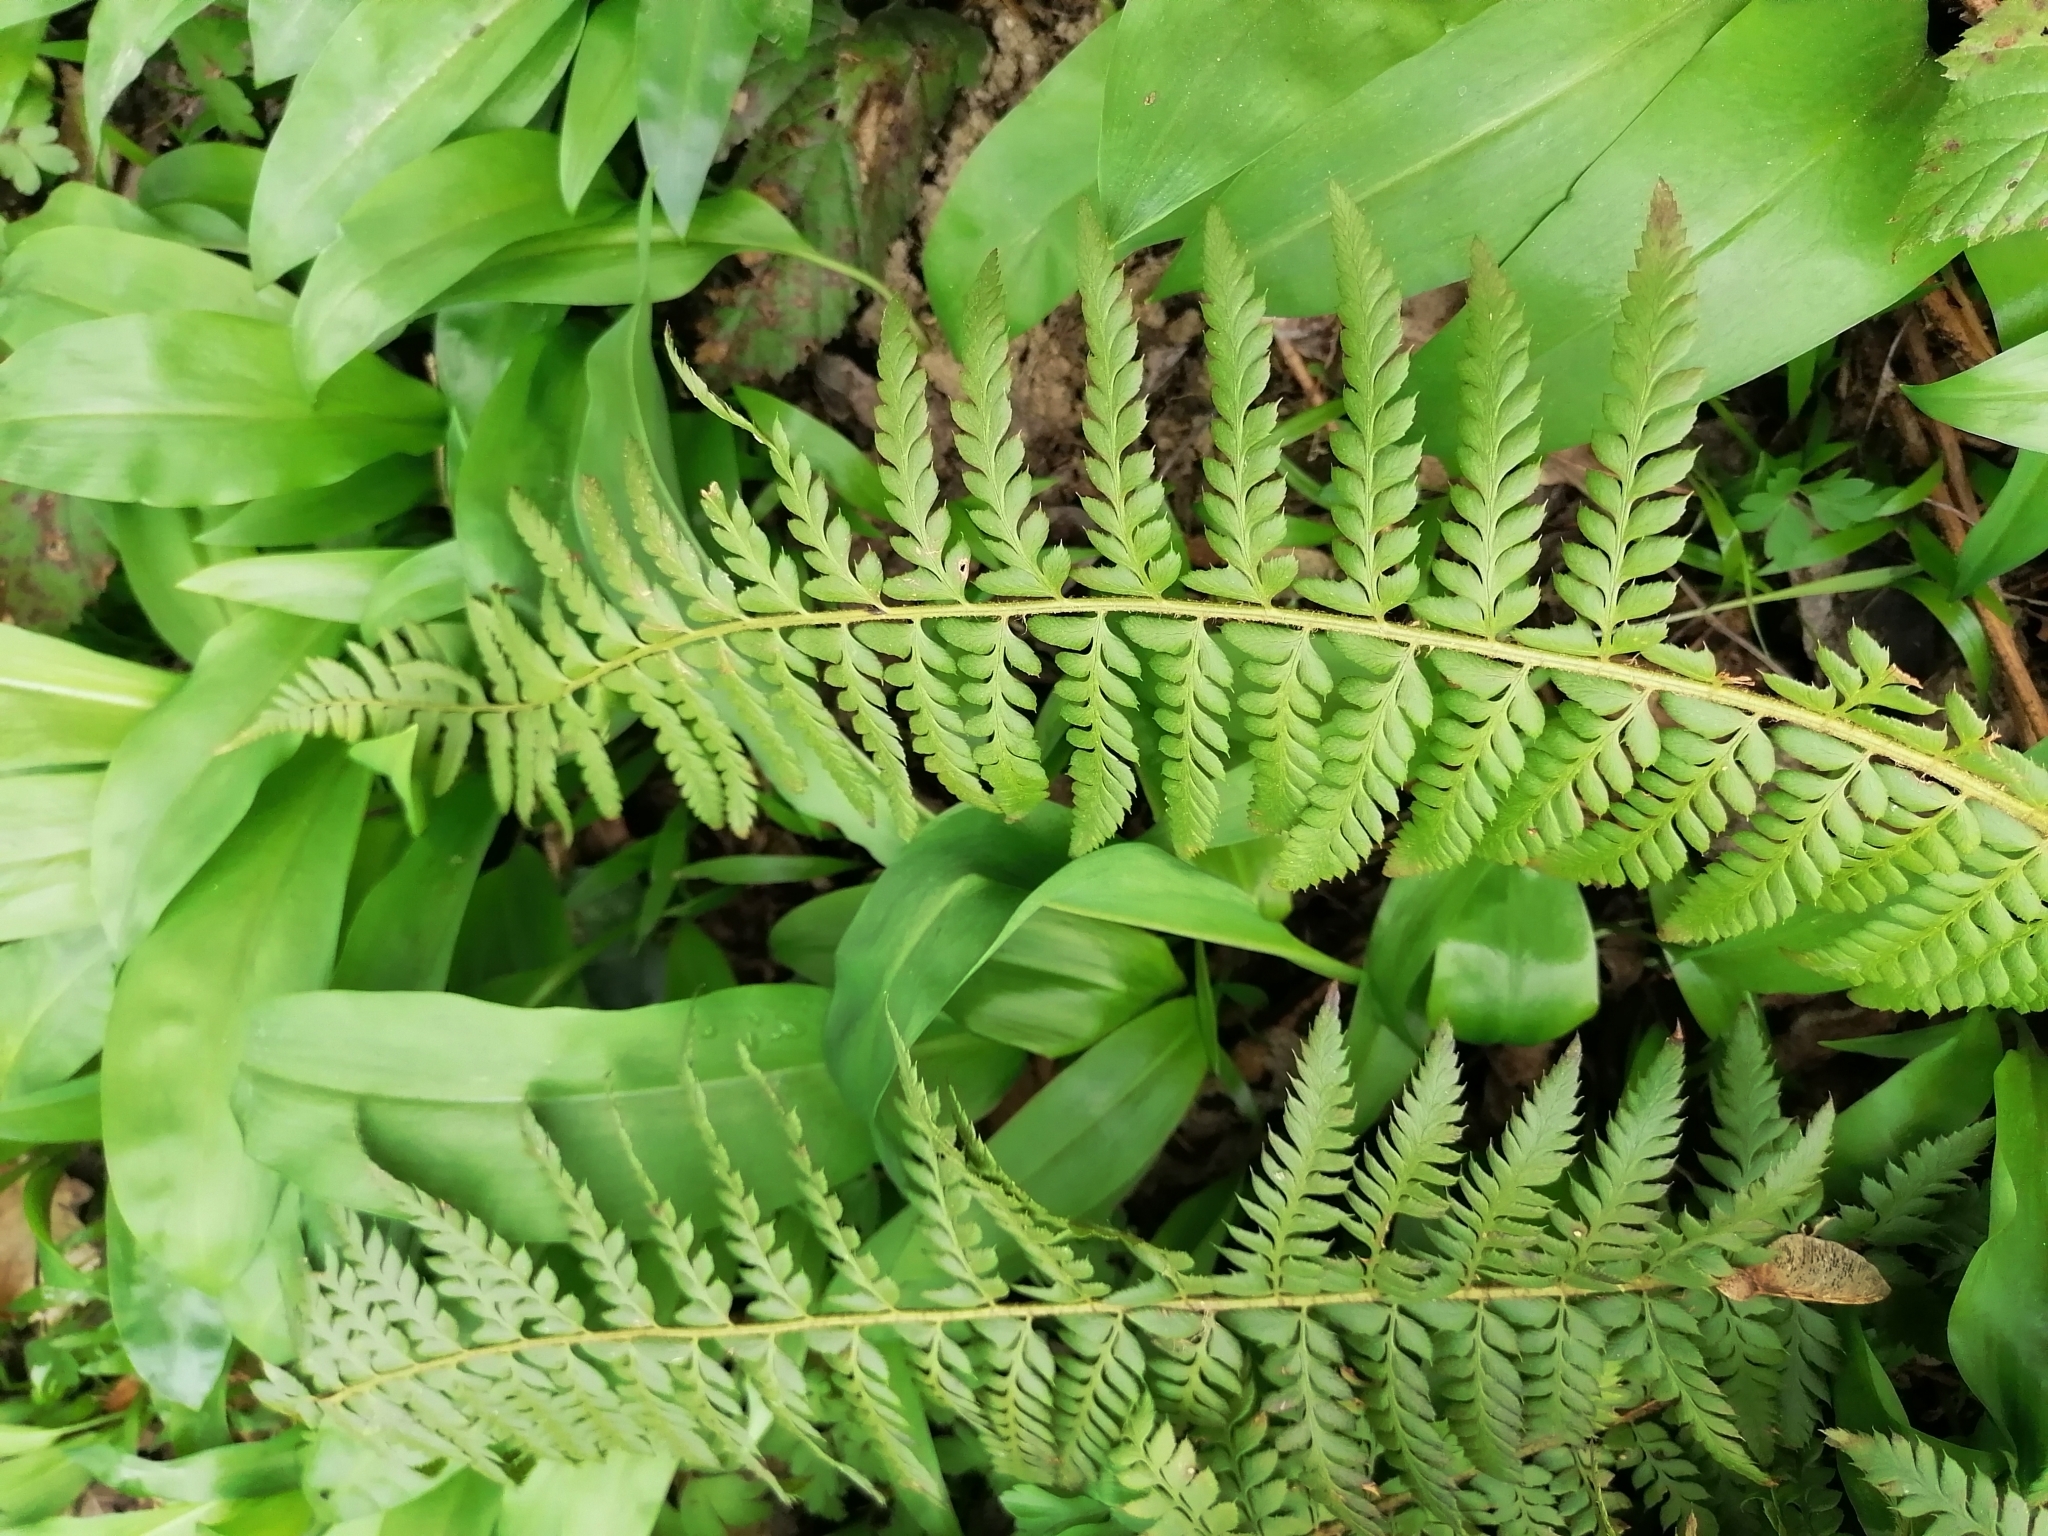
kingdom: Plantae
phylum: Tracheophyta
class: Polypodiopsida
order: Polypodiales
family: Dryopteridaceae
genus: Polystichum
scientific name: Polystichum aculeatum
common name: Hard shield-fern
